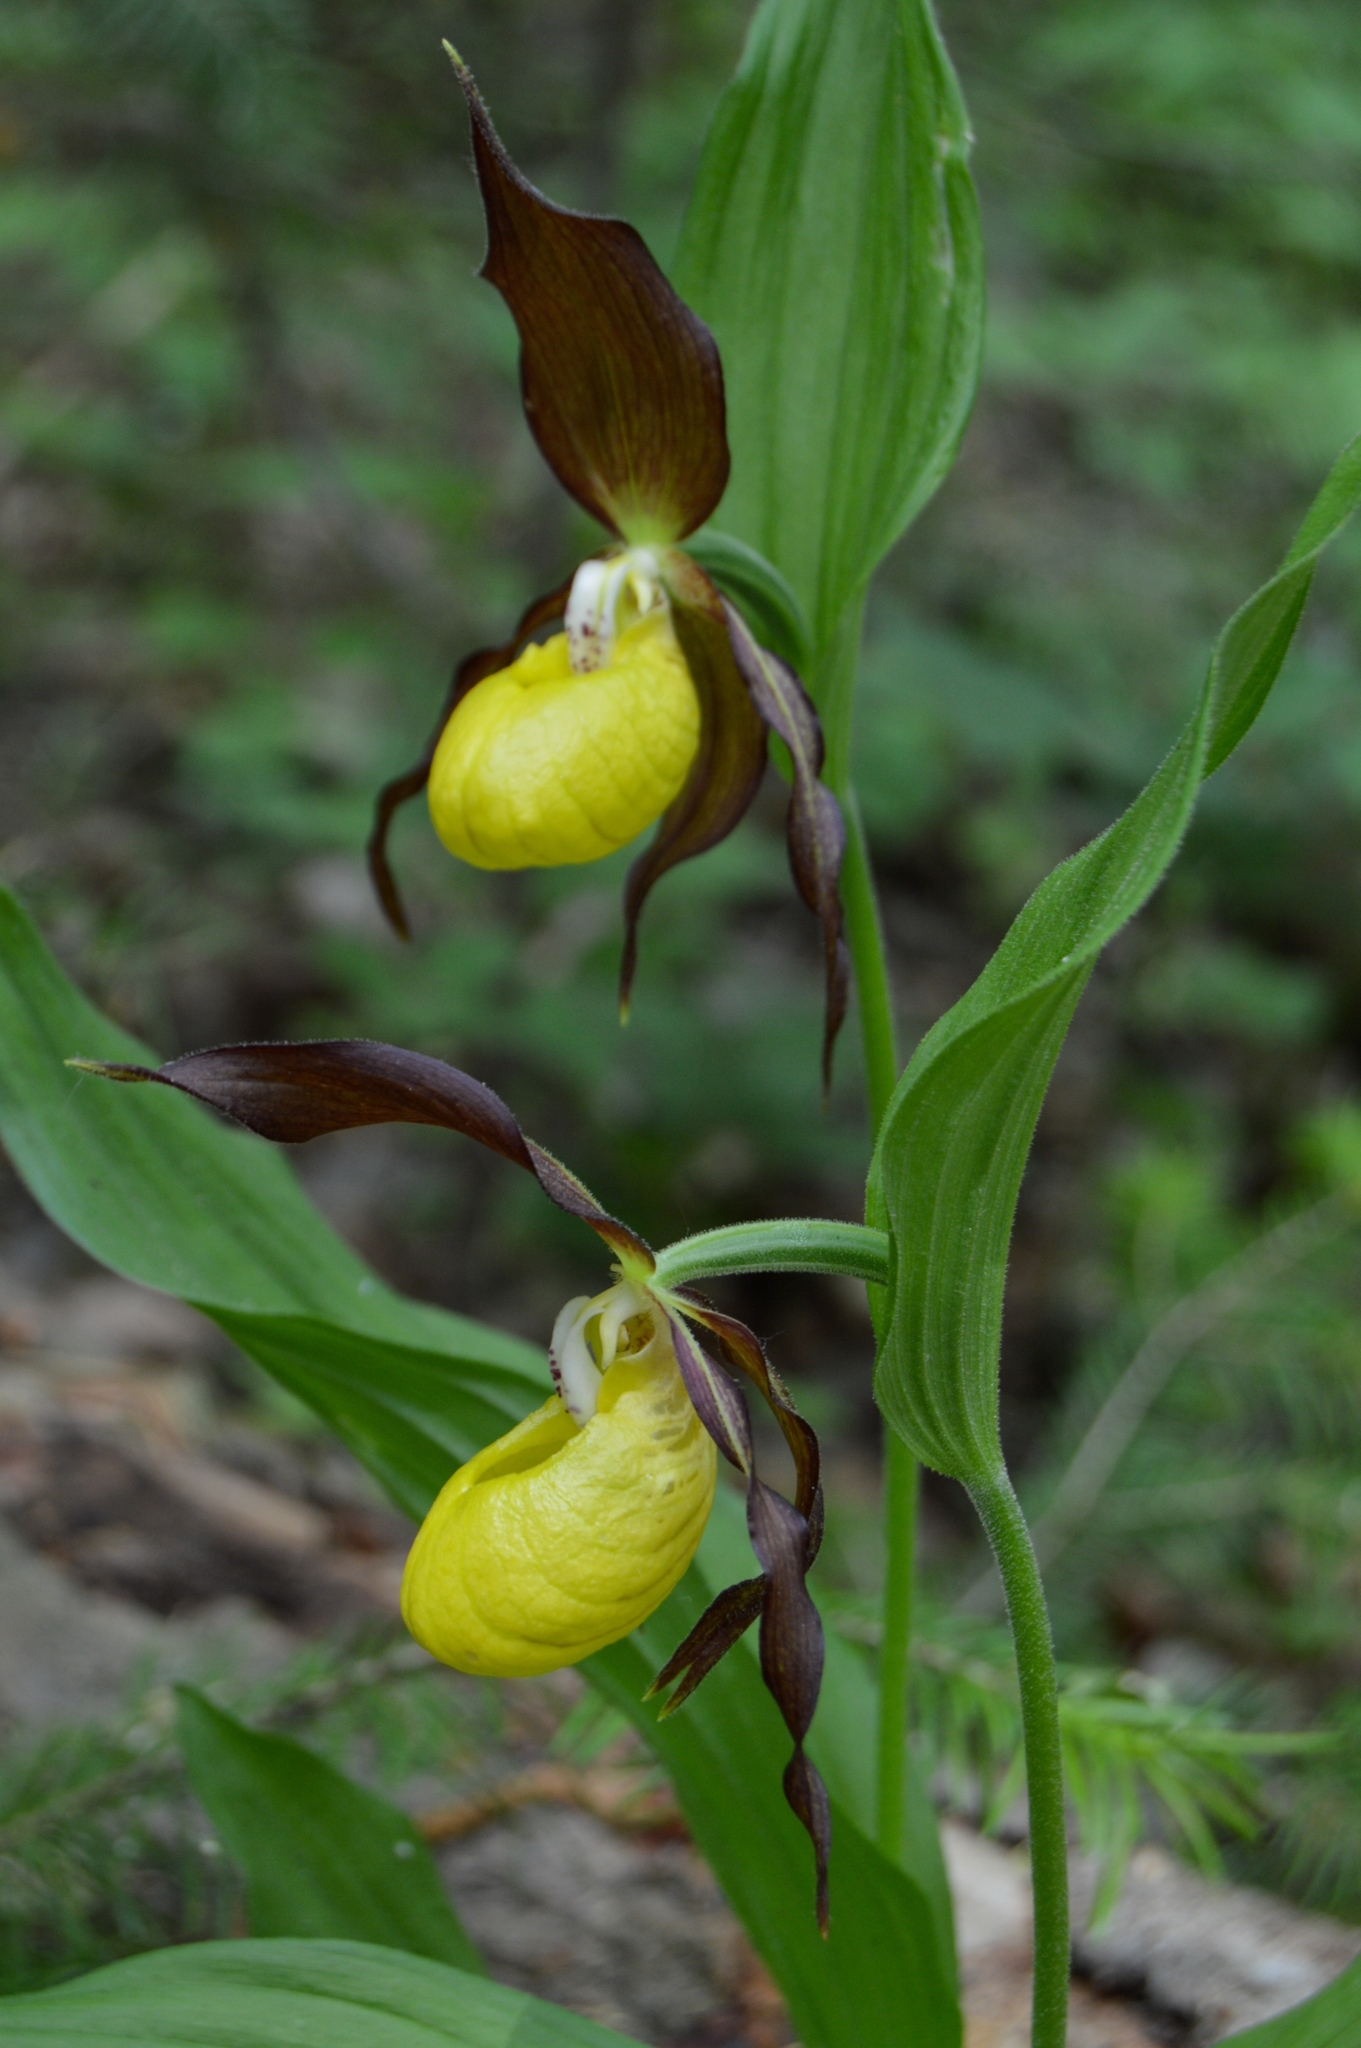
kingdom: Plantae
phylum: Tracheophyta
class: Liliopsida
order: Asparagales
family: Orchidaceae
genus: Cypripedium
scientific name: Cypripedium calceolus
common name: Lady's-slipper
